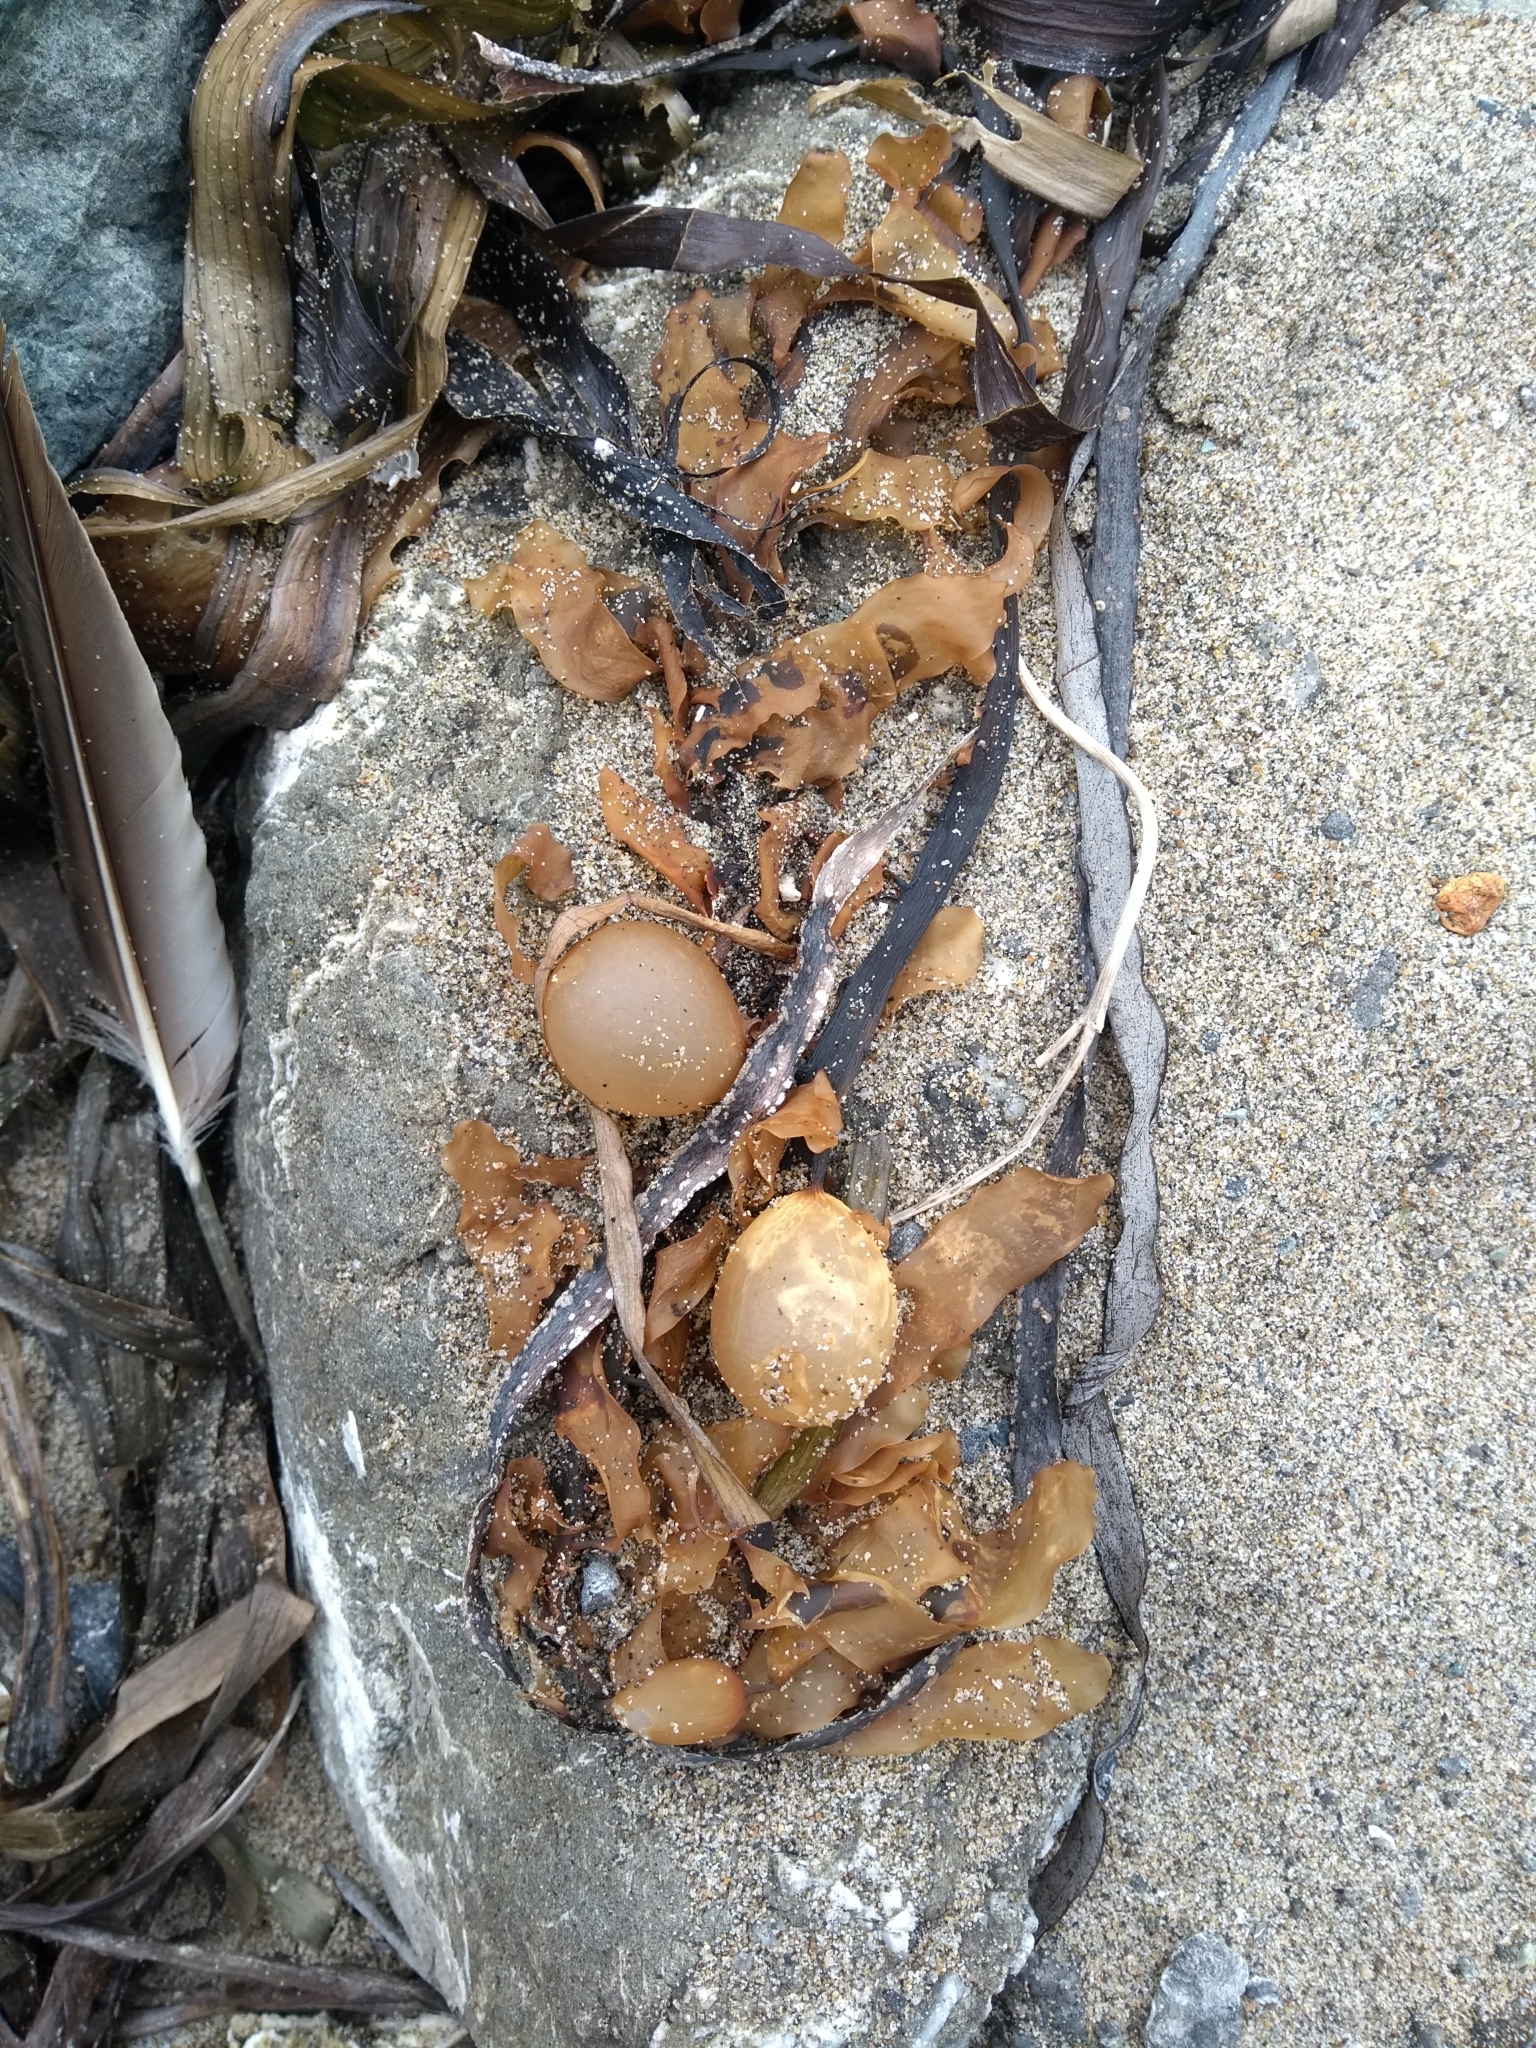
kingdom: Chromista
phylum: Ochrophyta
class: Phaeophyceae
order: Laminariales
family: Lessoniaceae
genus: Egregia
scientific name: Egregia menziesii
